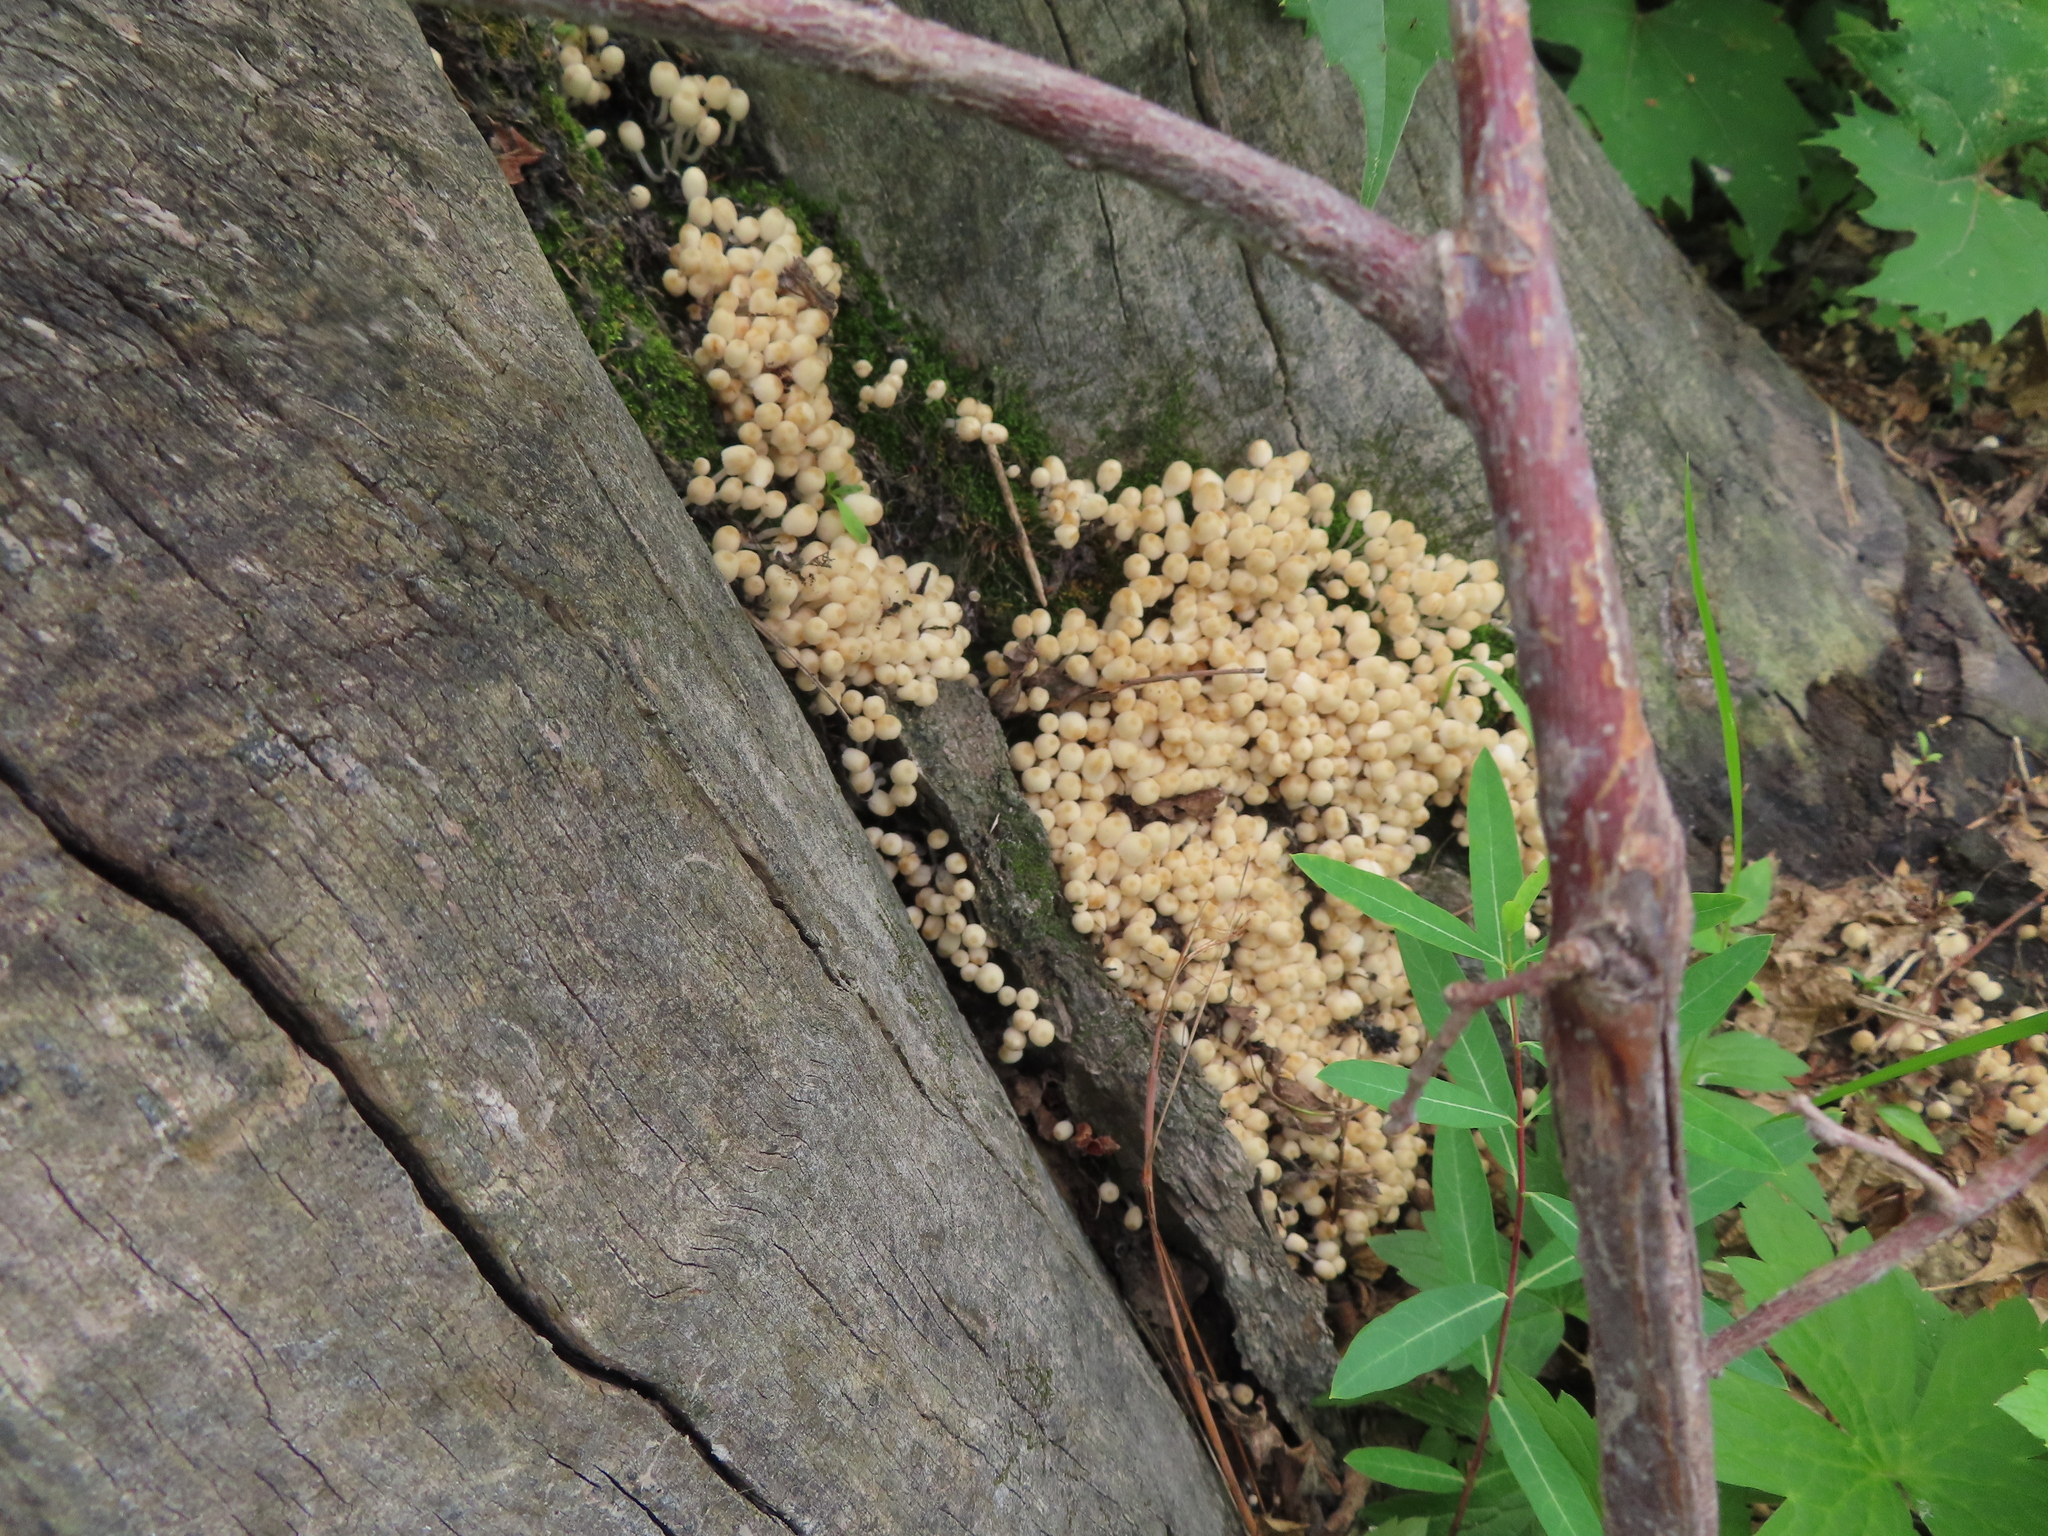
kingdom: Fungi
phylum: Basidiomycota
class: Agaricomycetes
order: Agaricales
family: Psathyrellaceae
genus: Coprinellus
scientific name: Coprinellus disseminatus
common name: Fairies' bonnets
